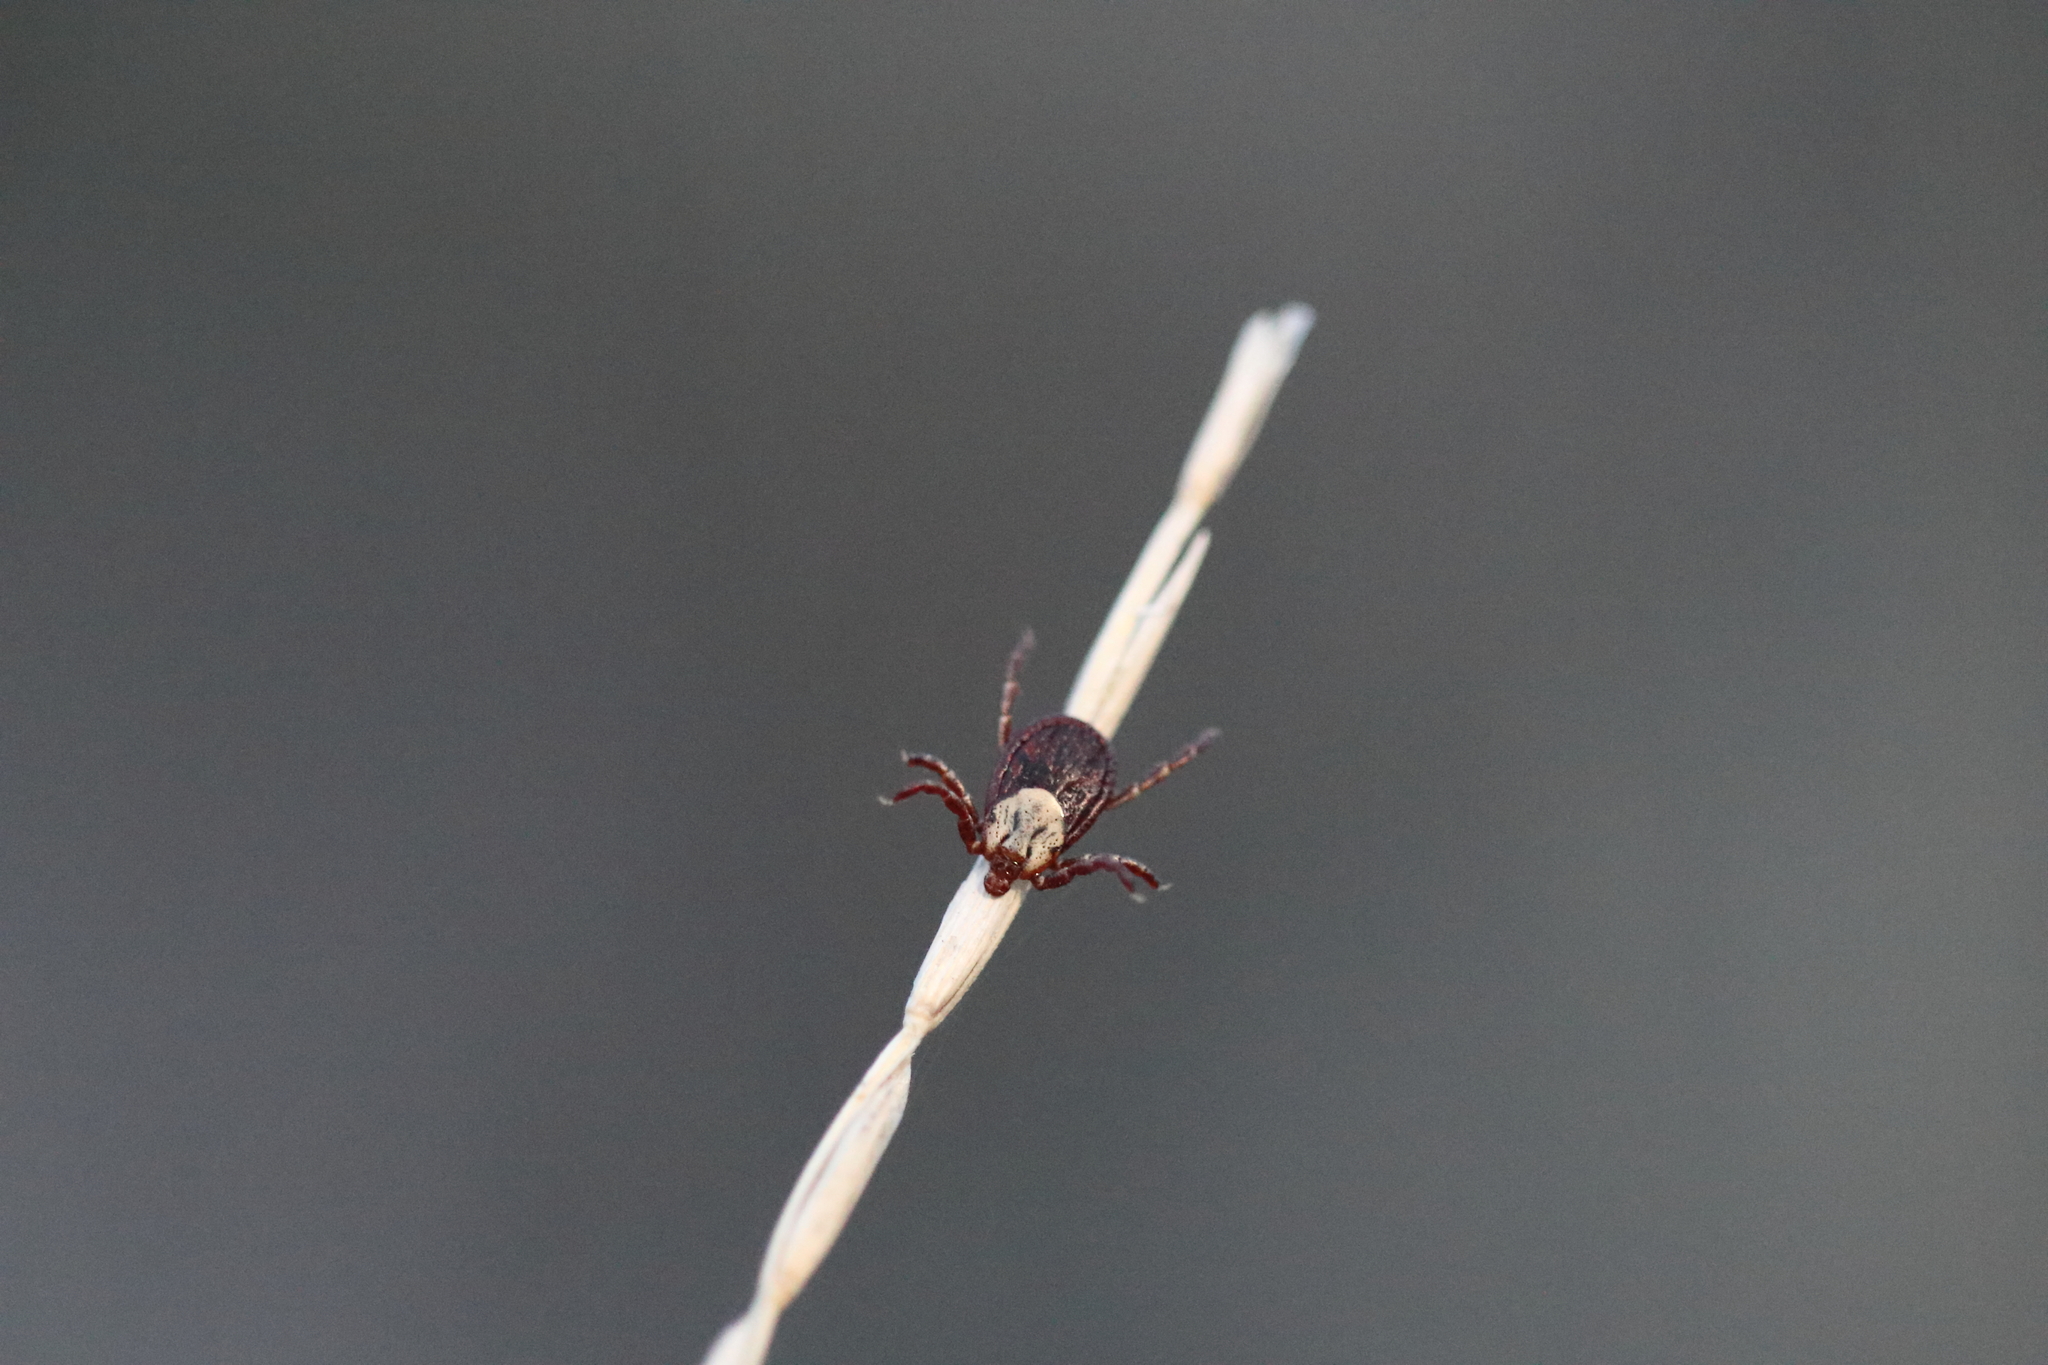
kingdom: Animalia
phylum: Arthropoda
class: Arachnida
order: Ixodida
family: Ixodidae
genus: Dermacentor
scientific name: Dermacentor andersoni
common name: Rocky mountain wood tick
